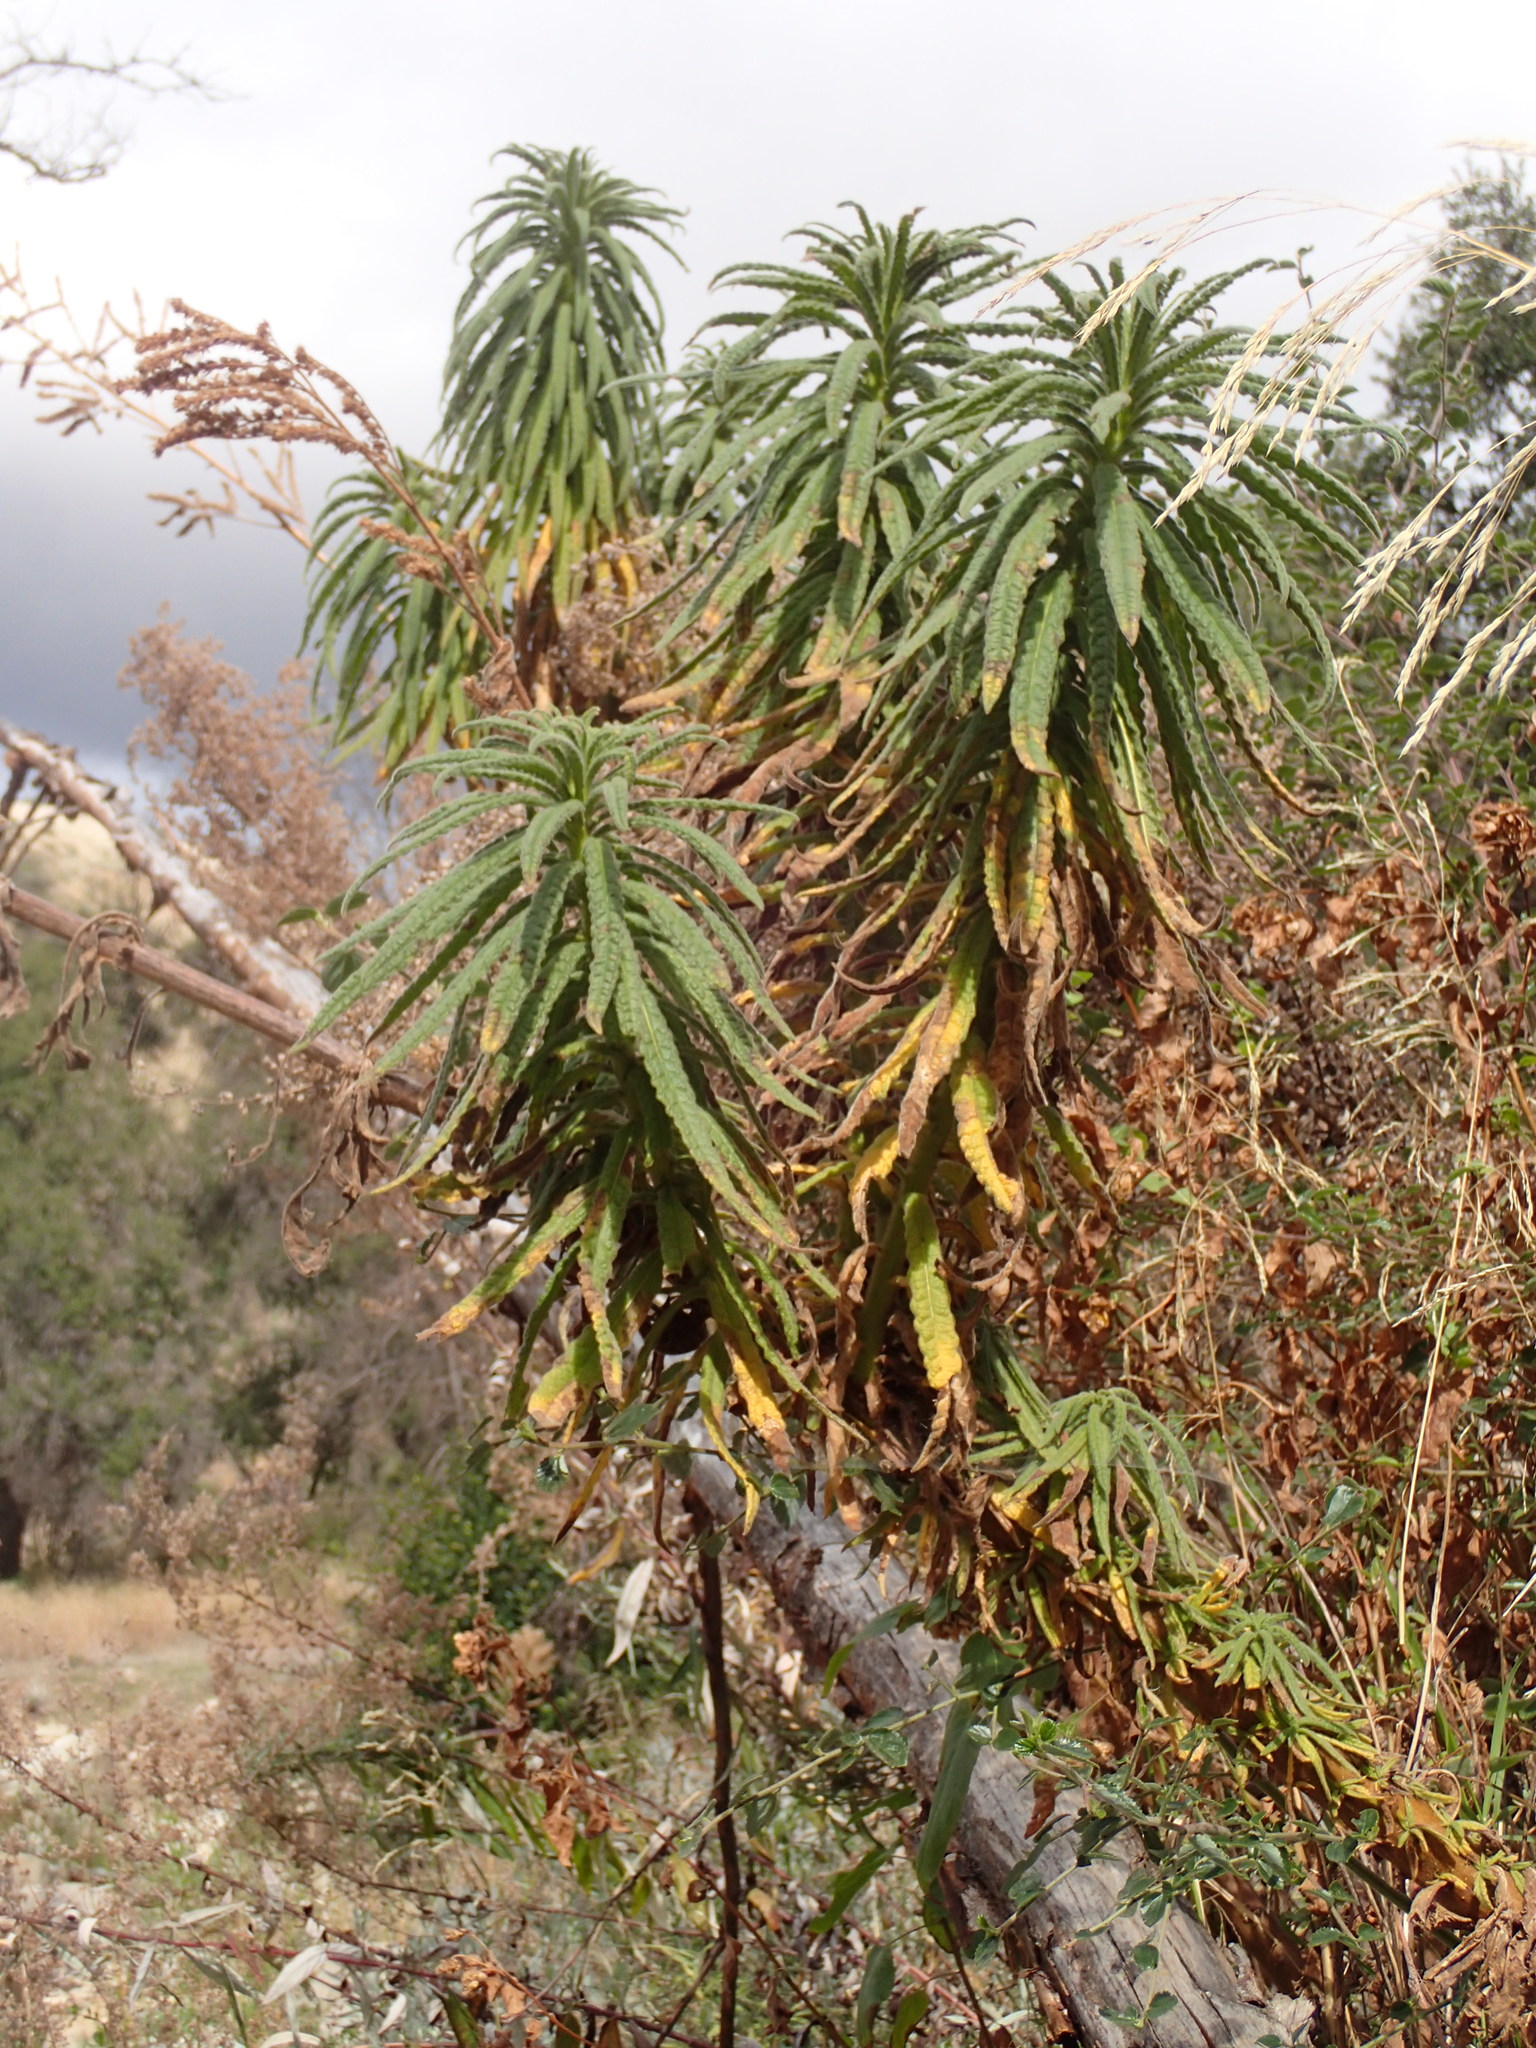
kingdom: Plantae
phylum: Tracheophyta
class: Magnoliopsida
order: Boraginales
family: Namaceae
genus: Turricula
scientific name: Turricula parryi
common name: Poodle-dog-bush
